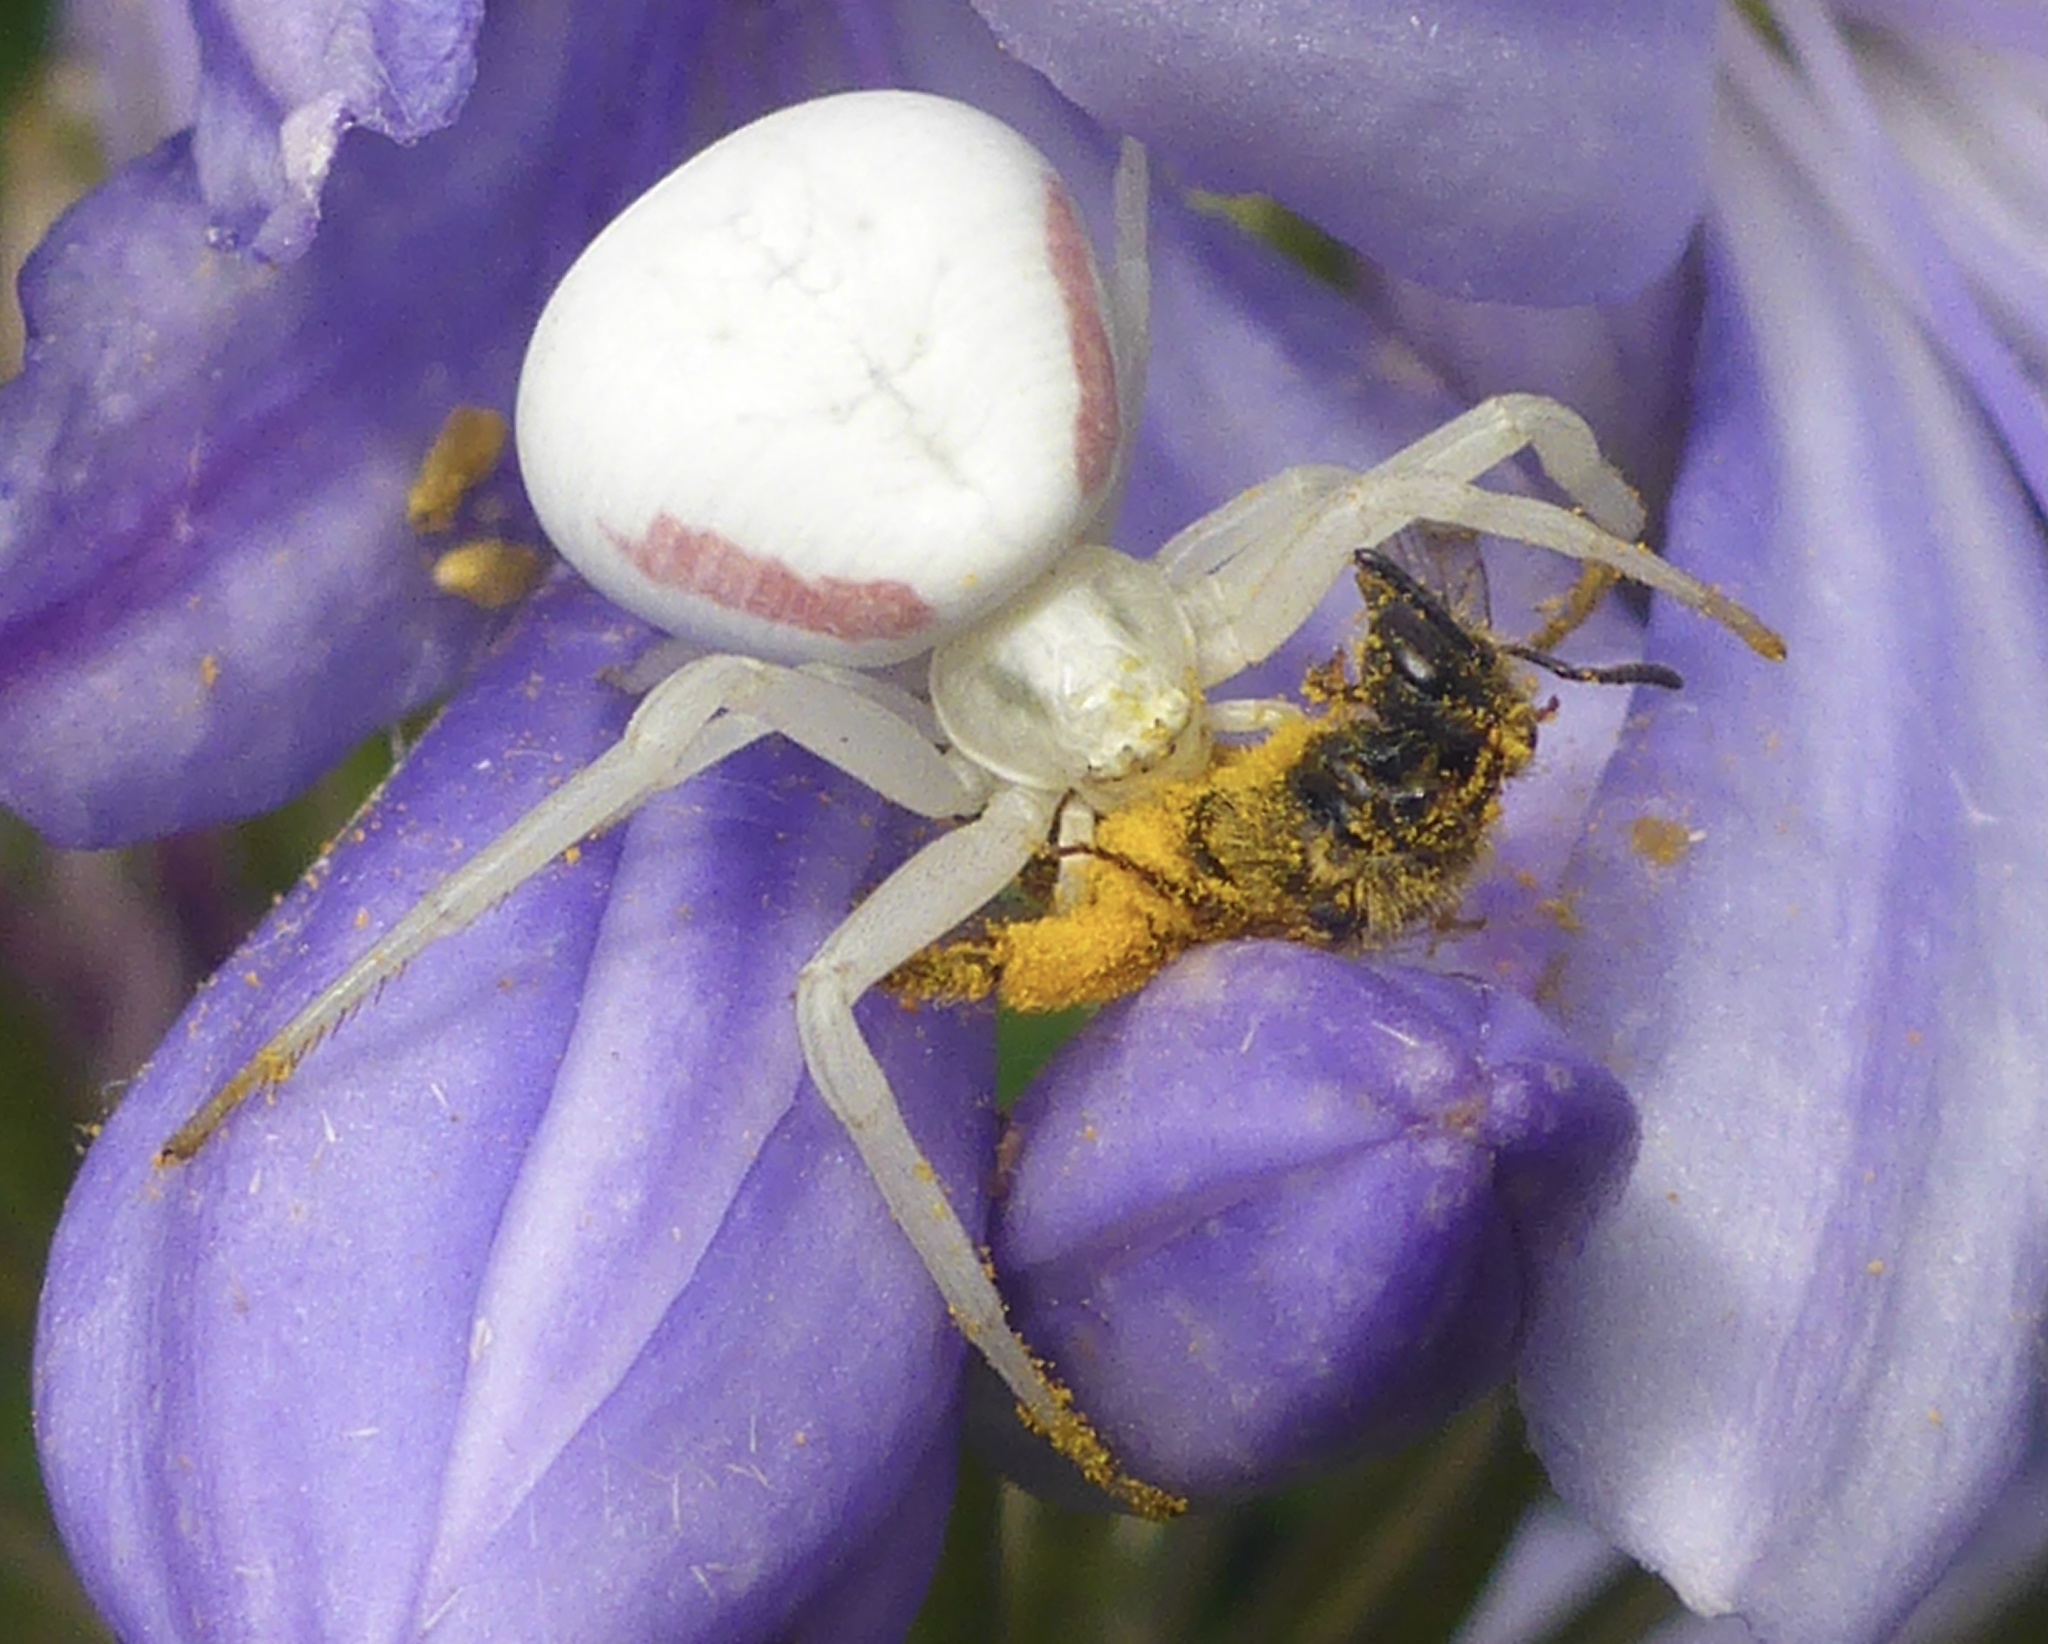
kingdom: Animalia
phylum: Arthropoda
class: Arachnida
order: Araneae
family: Thomisidae
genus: Misumena
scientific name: Misumena vatia
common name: Goldenrod crab spider
